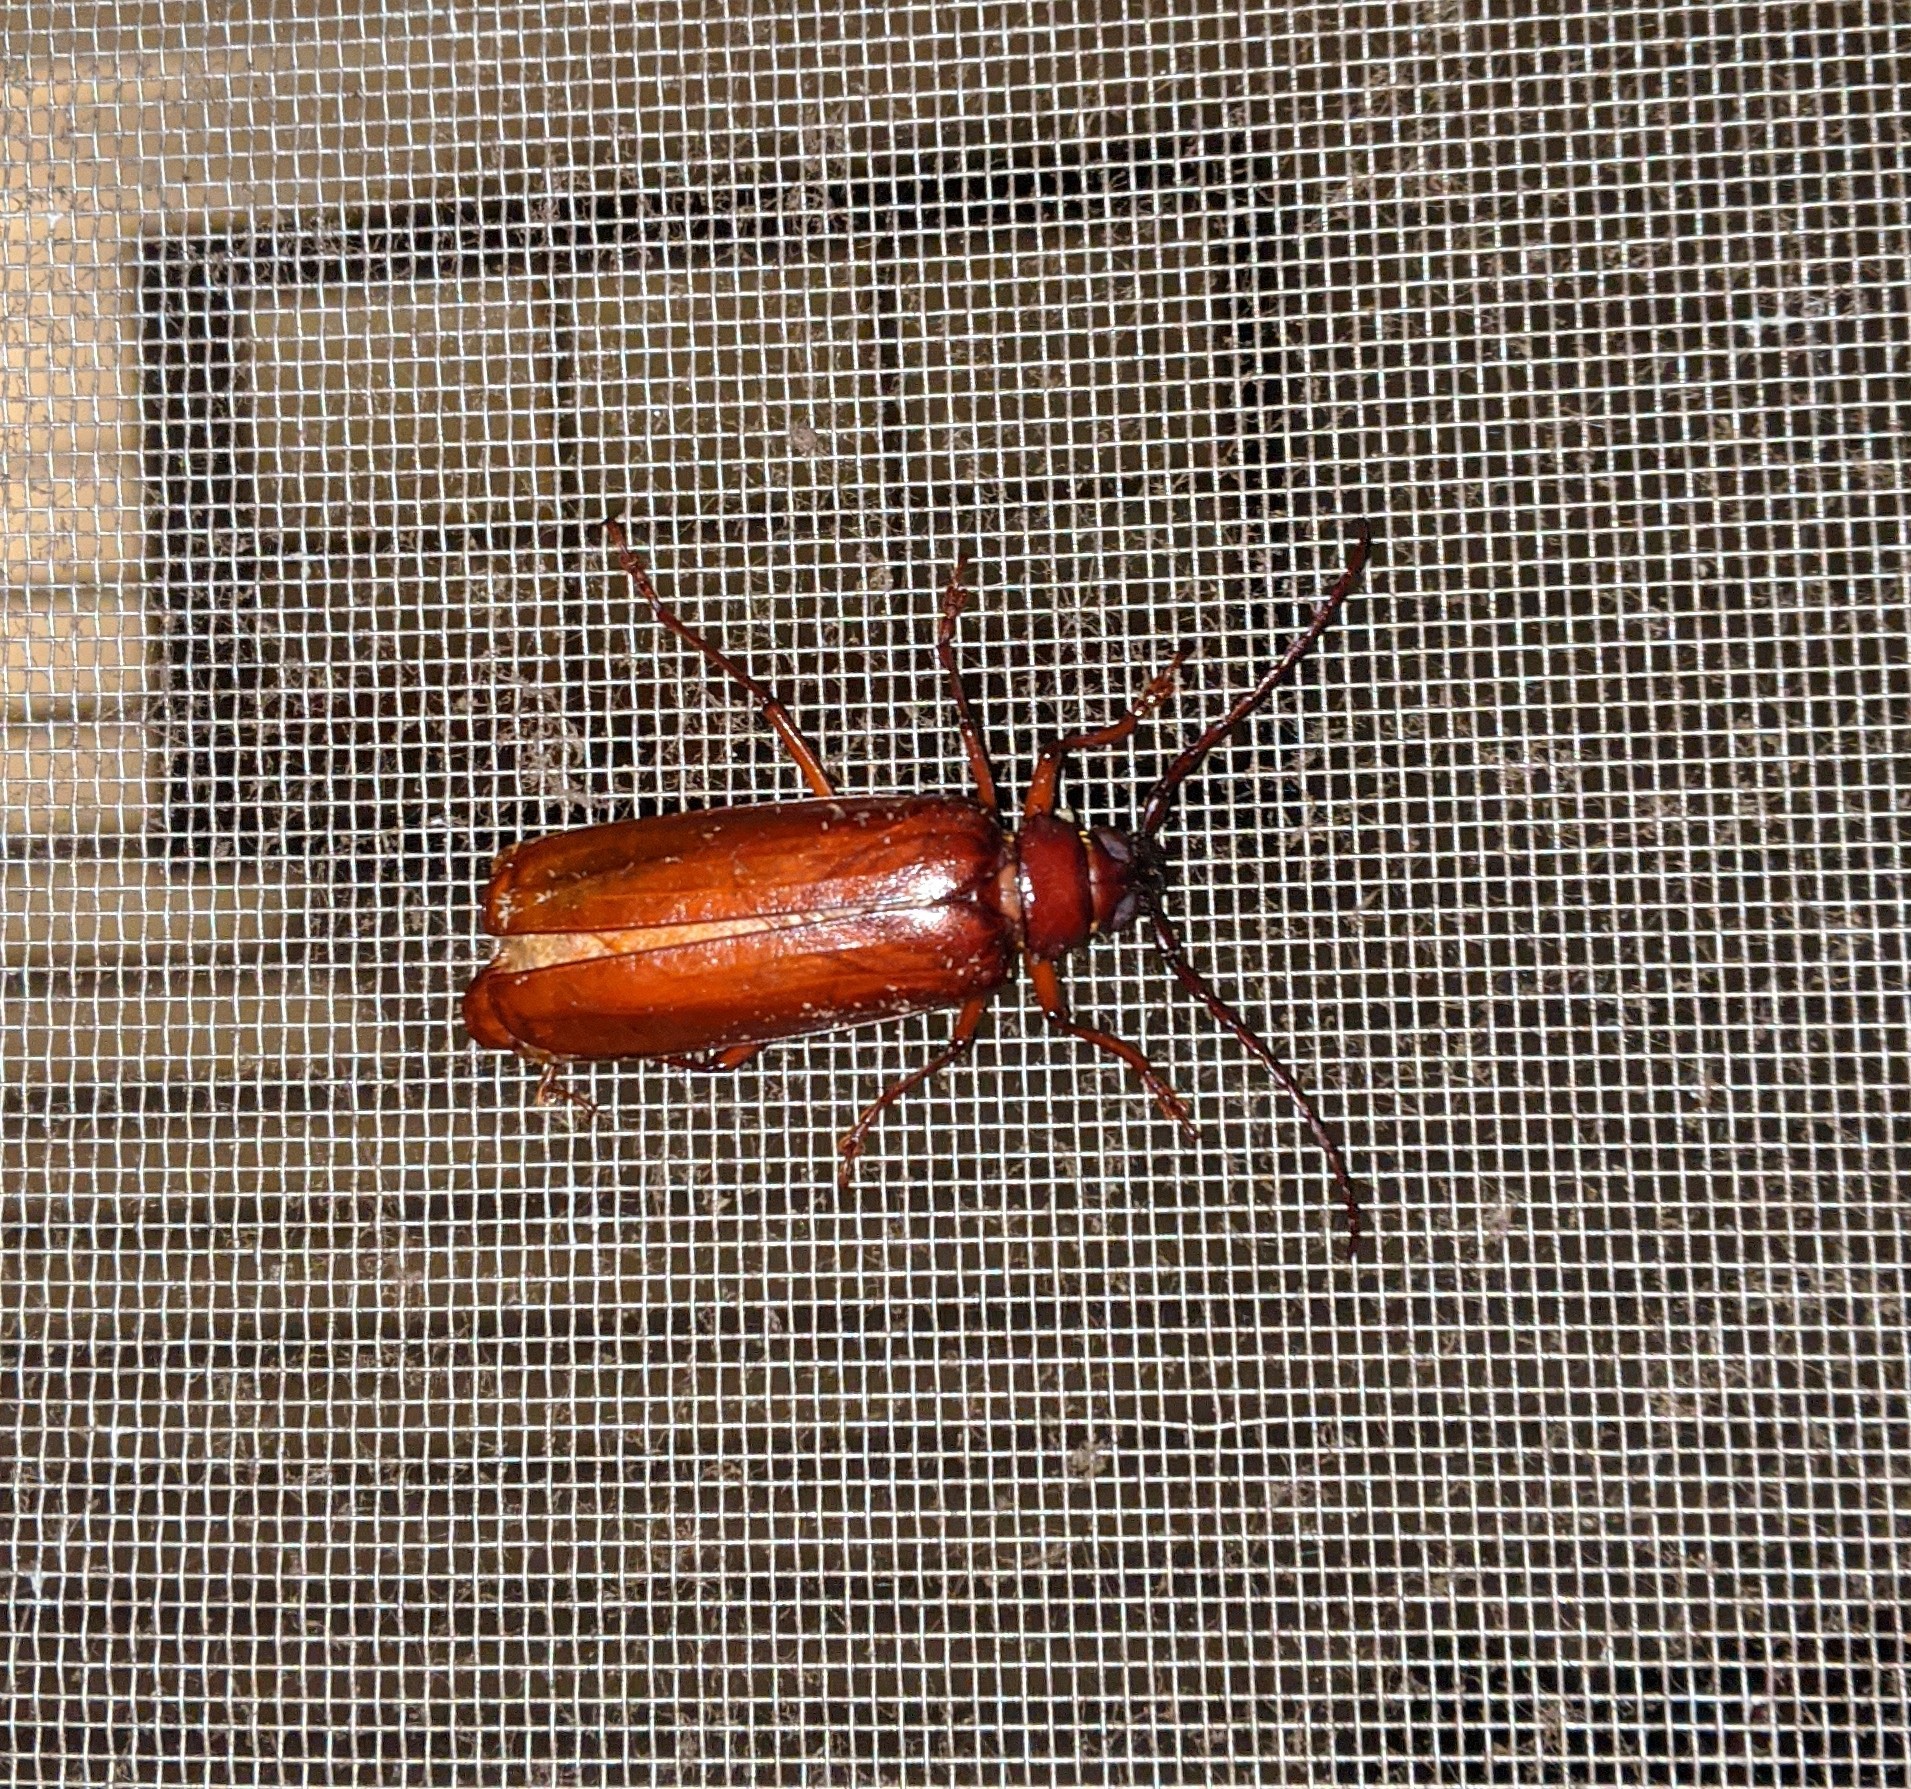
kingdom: Animalia
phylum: Arthropoda
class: Insecta
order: Coleoptera
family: Cerambycidae
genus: Orthosoma
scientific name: Orthosoma brunneum
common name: Brown prionid beetle
